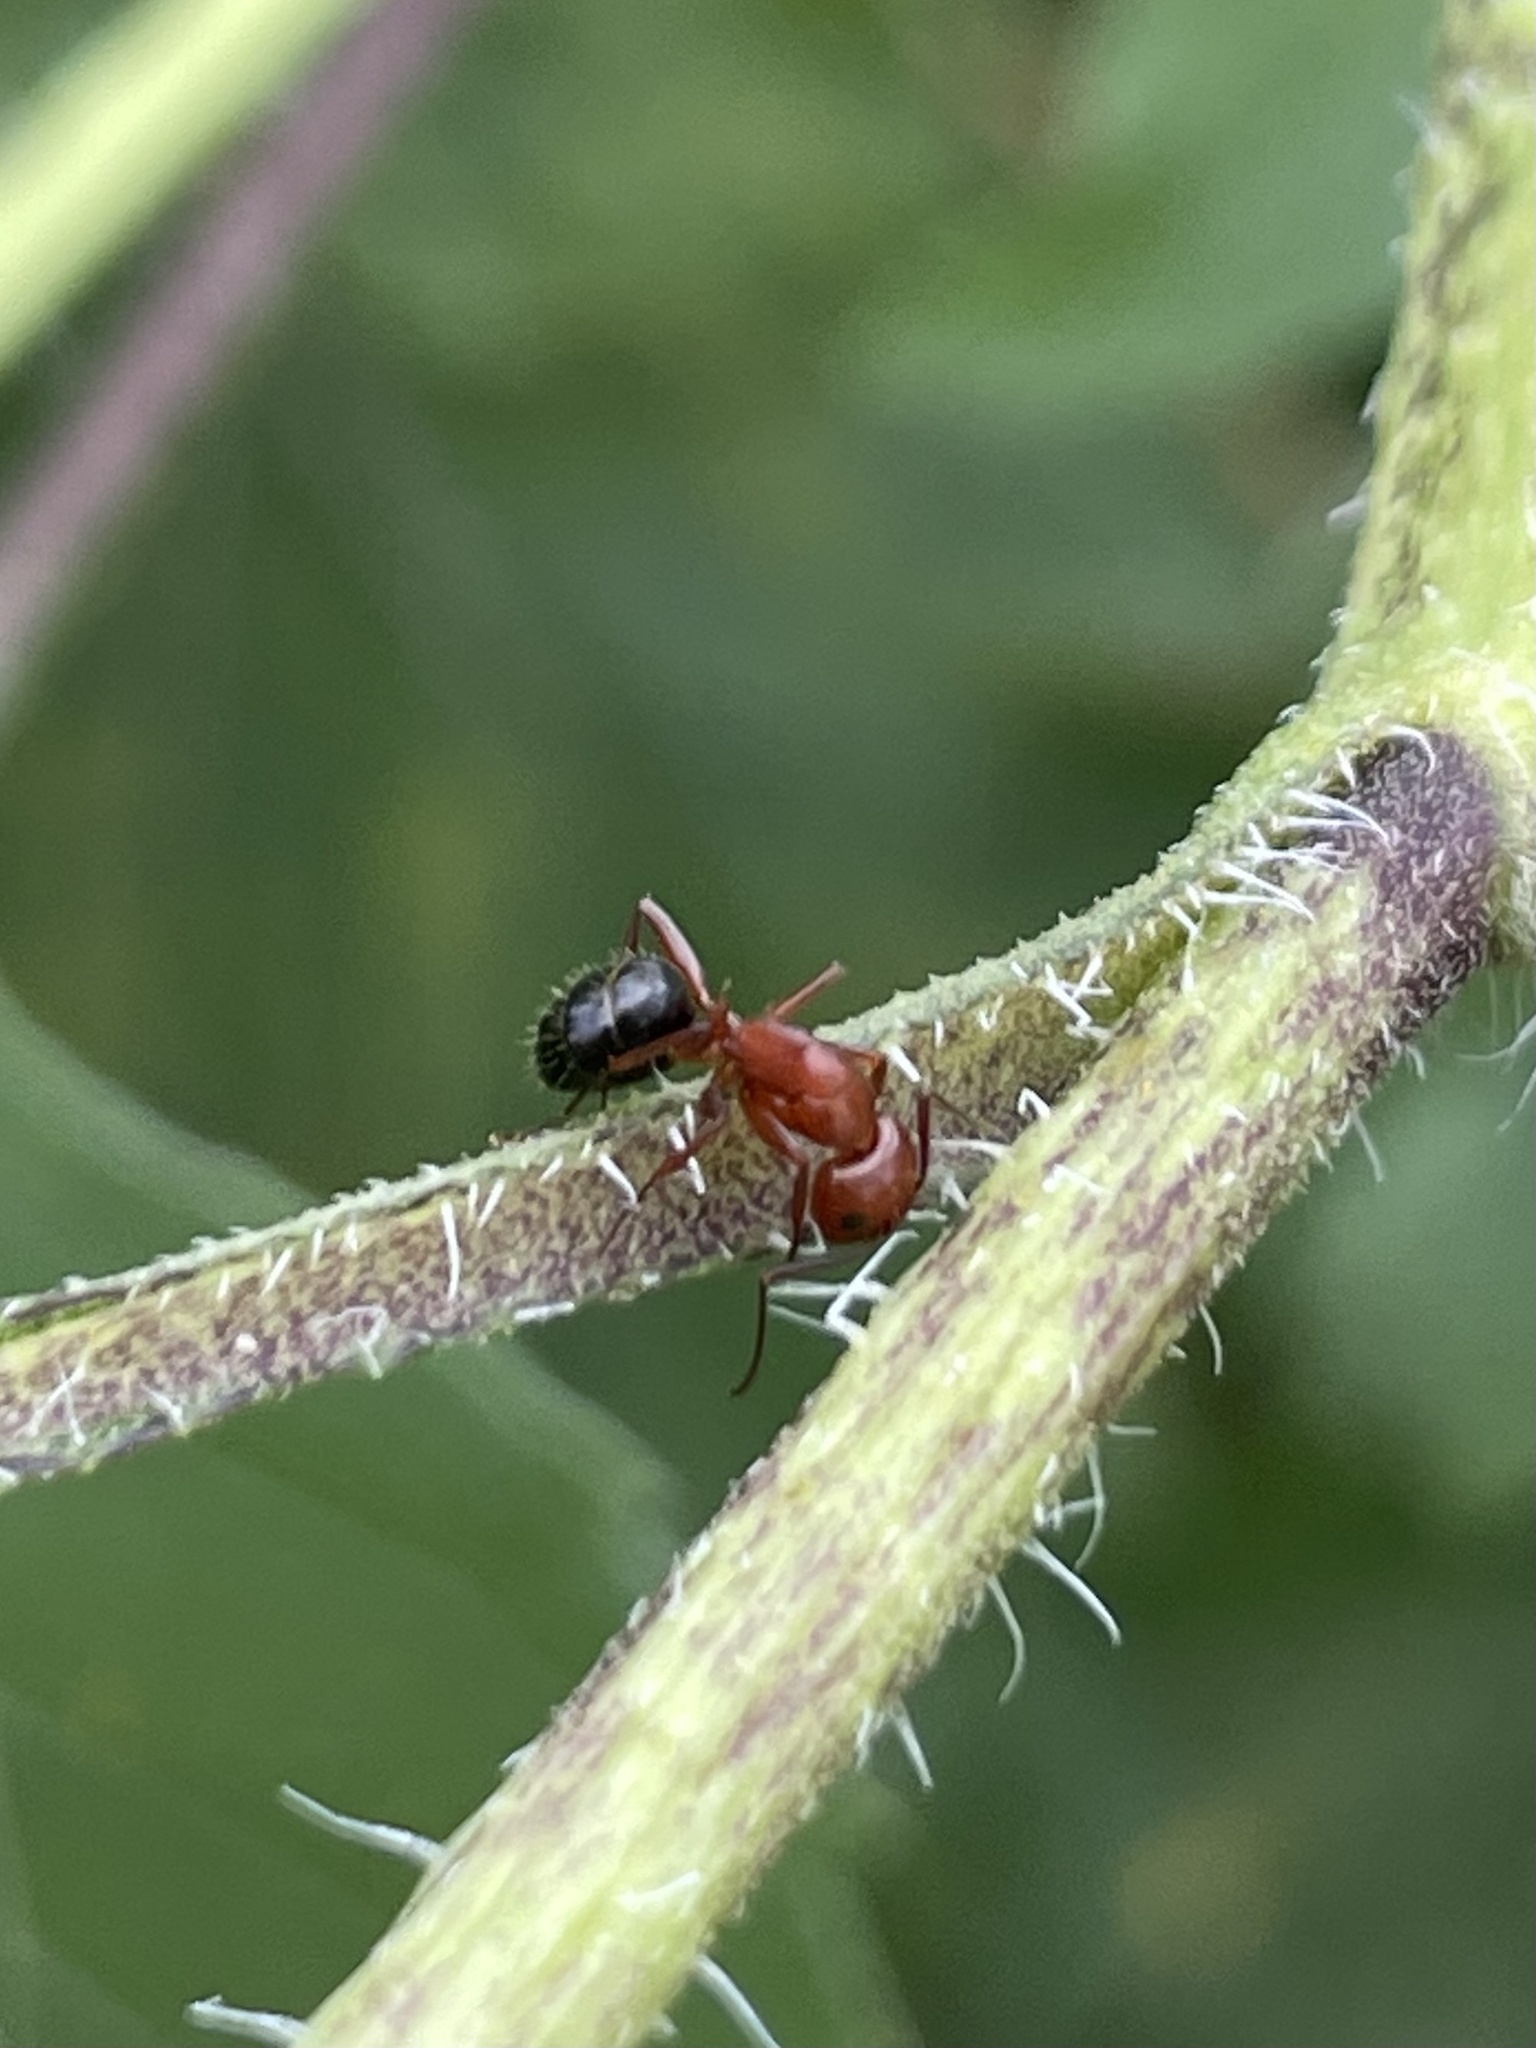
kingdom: Animalia
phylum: Arthropoda
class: Insecta
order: Hymenoptera
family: Formicidae
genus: Camponotus
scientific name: Camponotus decipiens
